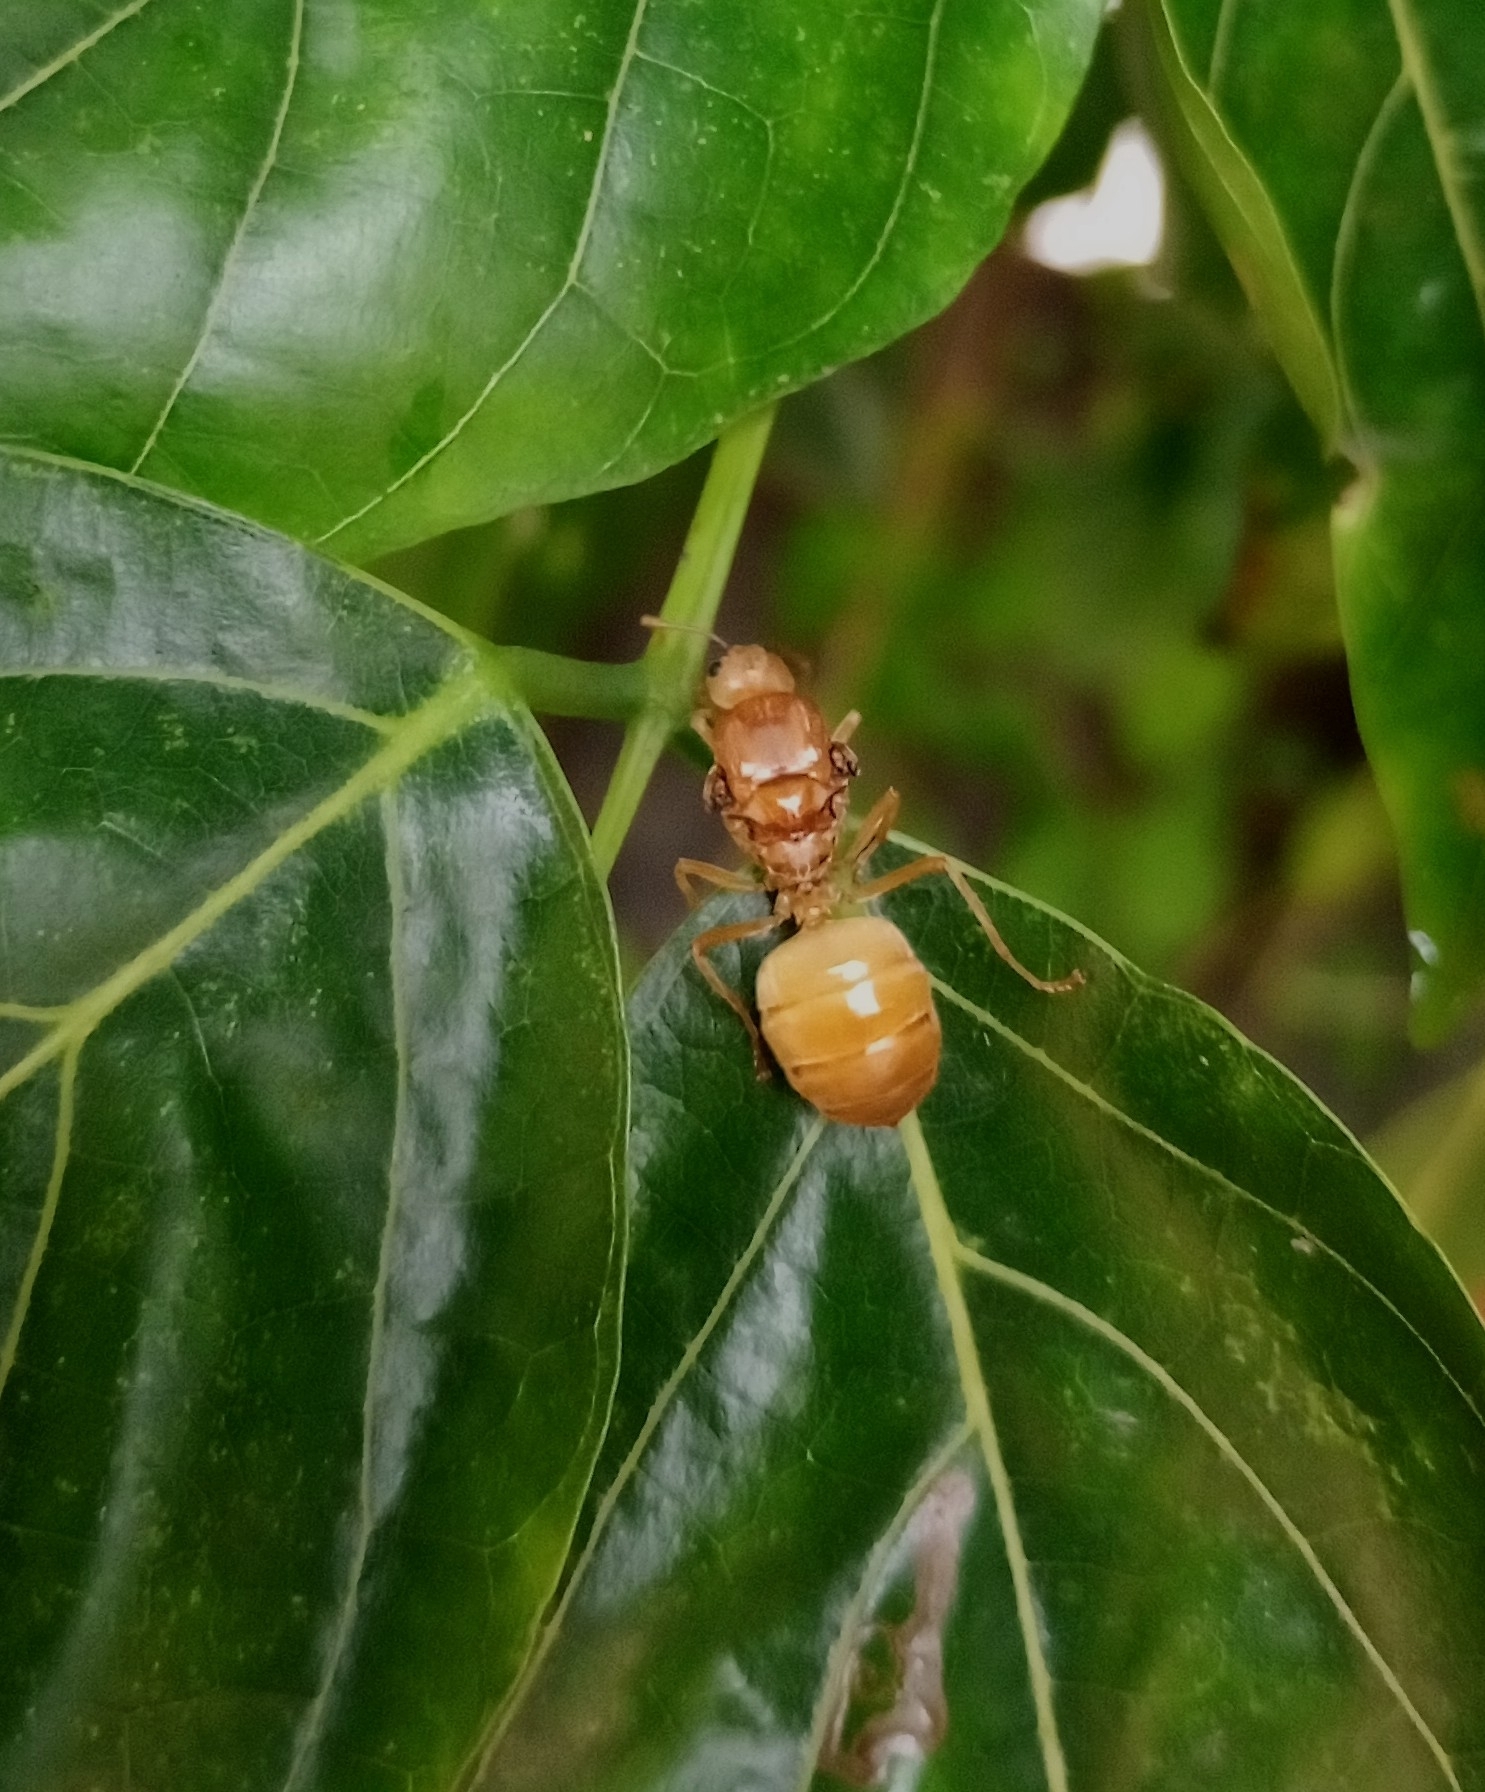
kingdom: Animalia
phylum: Arthropoda
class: Insecta
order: Hymenoptera
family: Formicidae
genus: Oecophylla
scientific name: Oecophylla smaragdina
